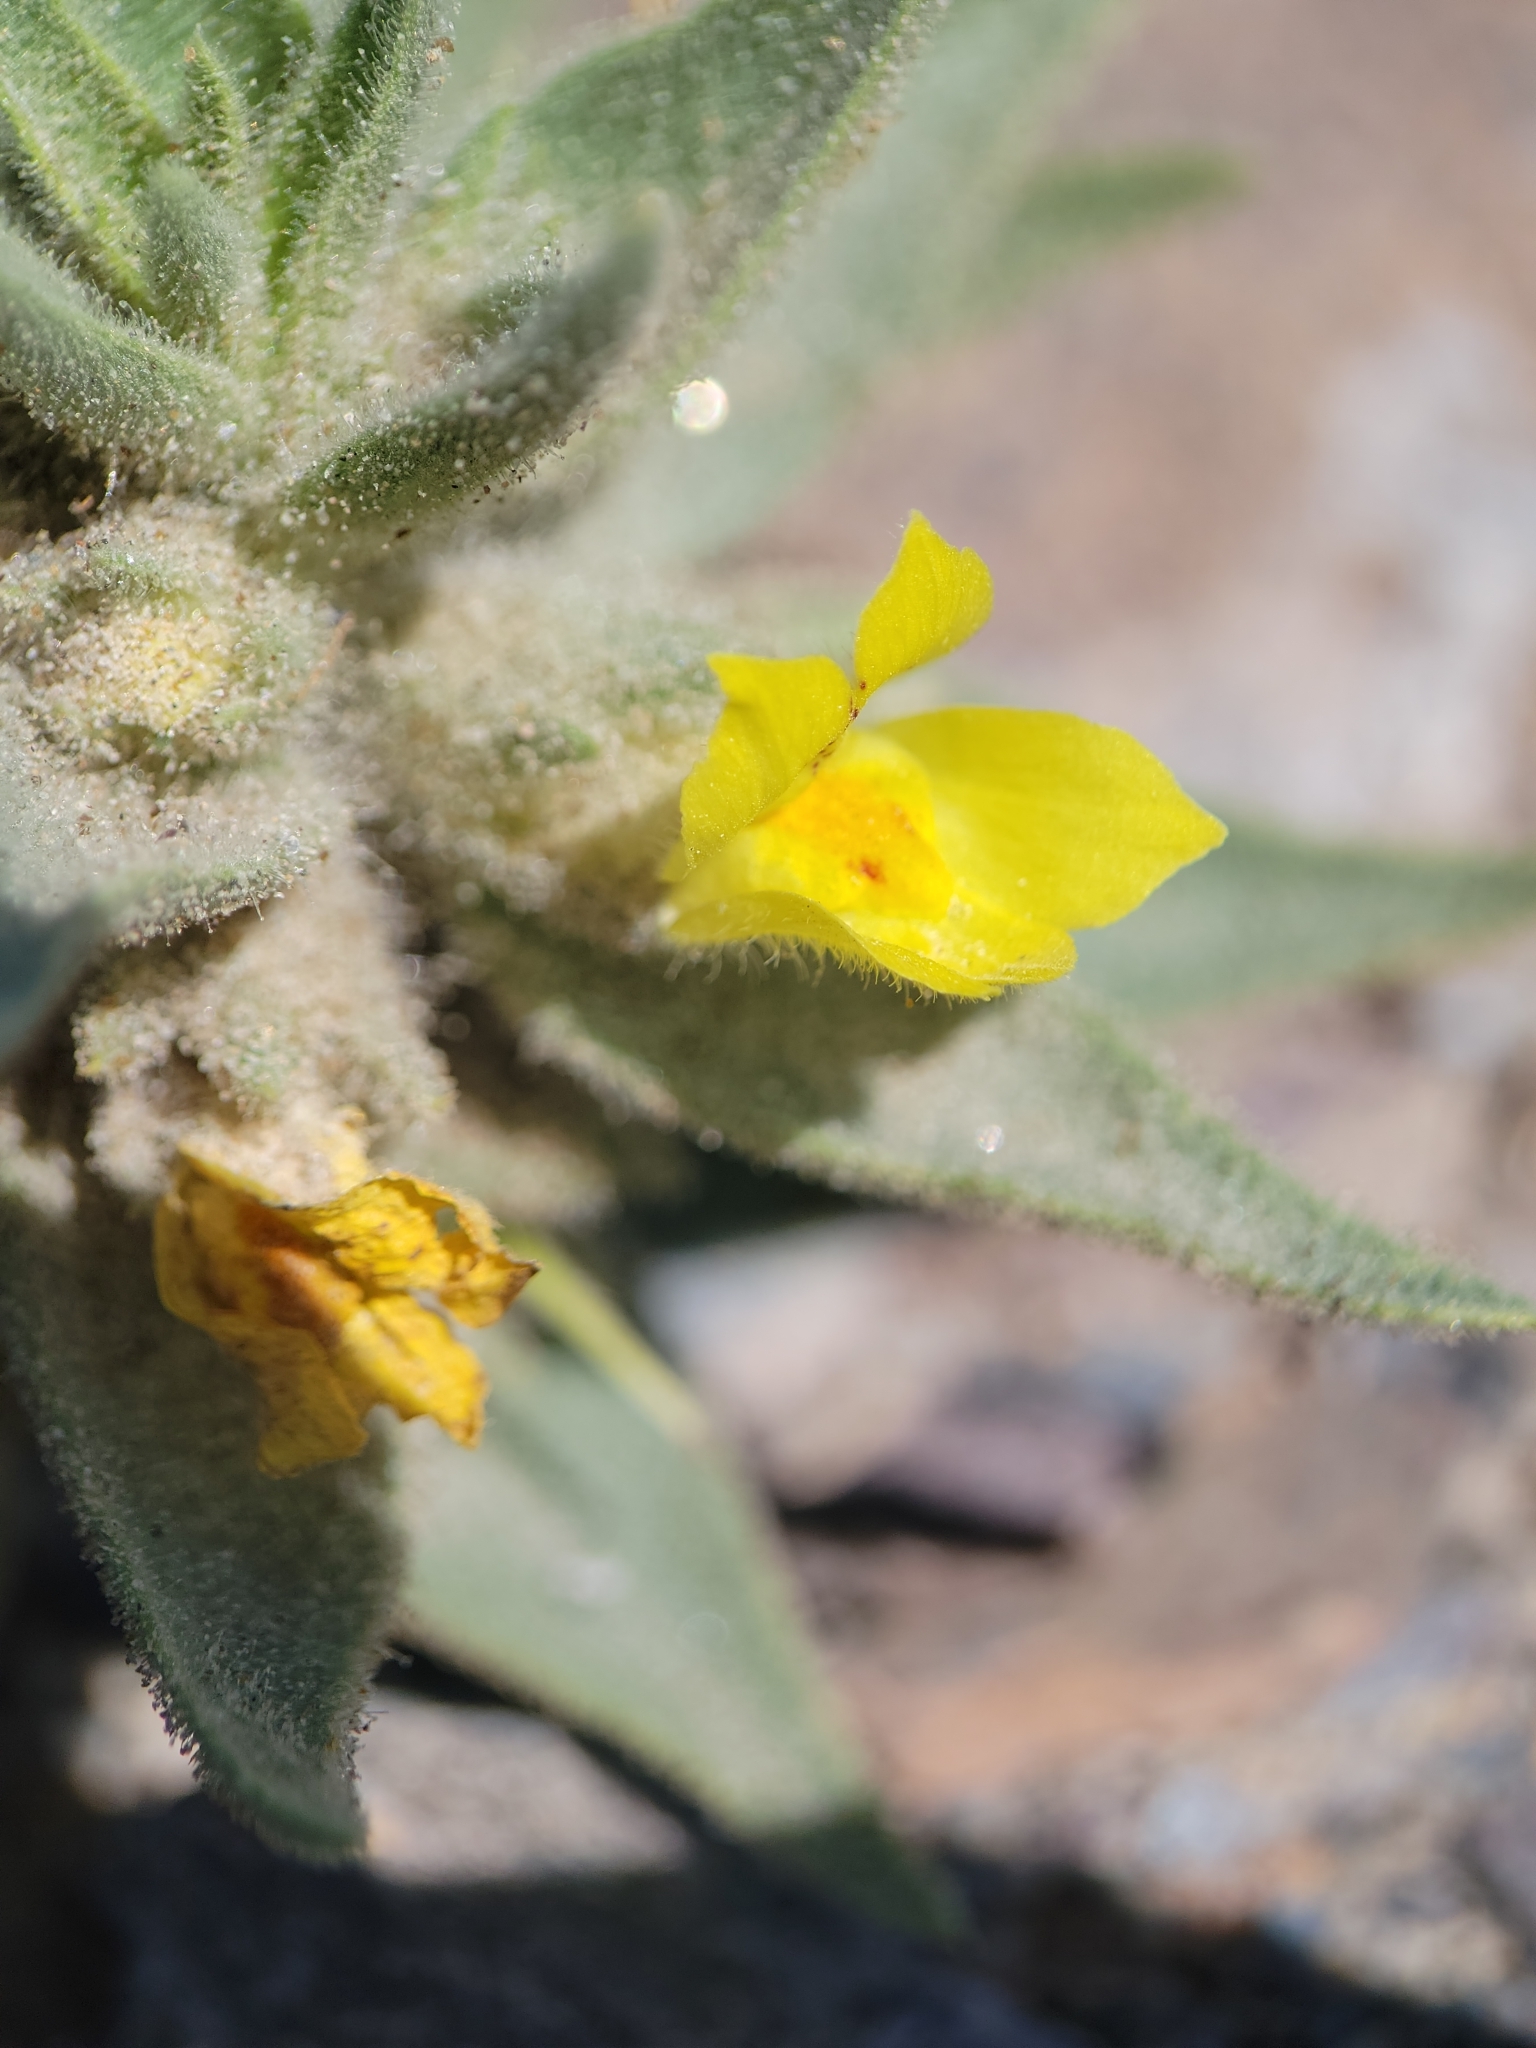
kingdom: Plantae
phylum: Tracheophyta
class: Magnoliopsida
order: Lamiales
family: Plantaginaceae
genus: Mohavea
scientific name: Mohavea breviflora
